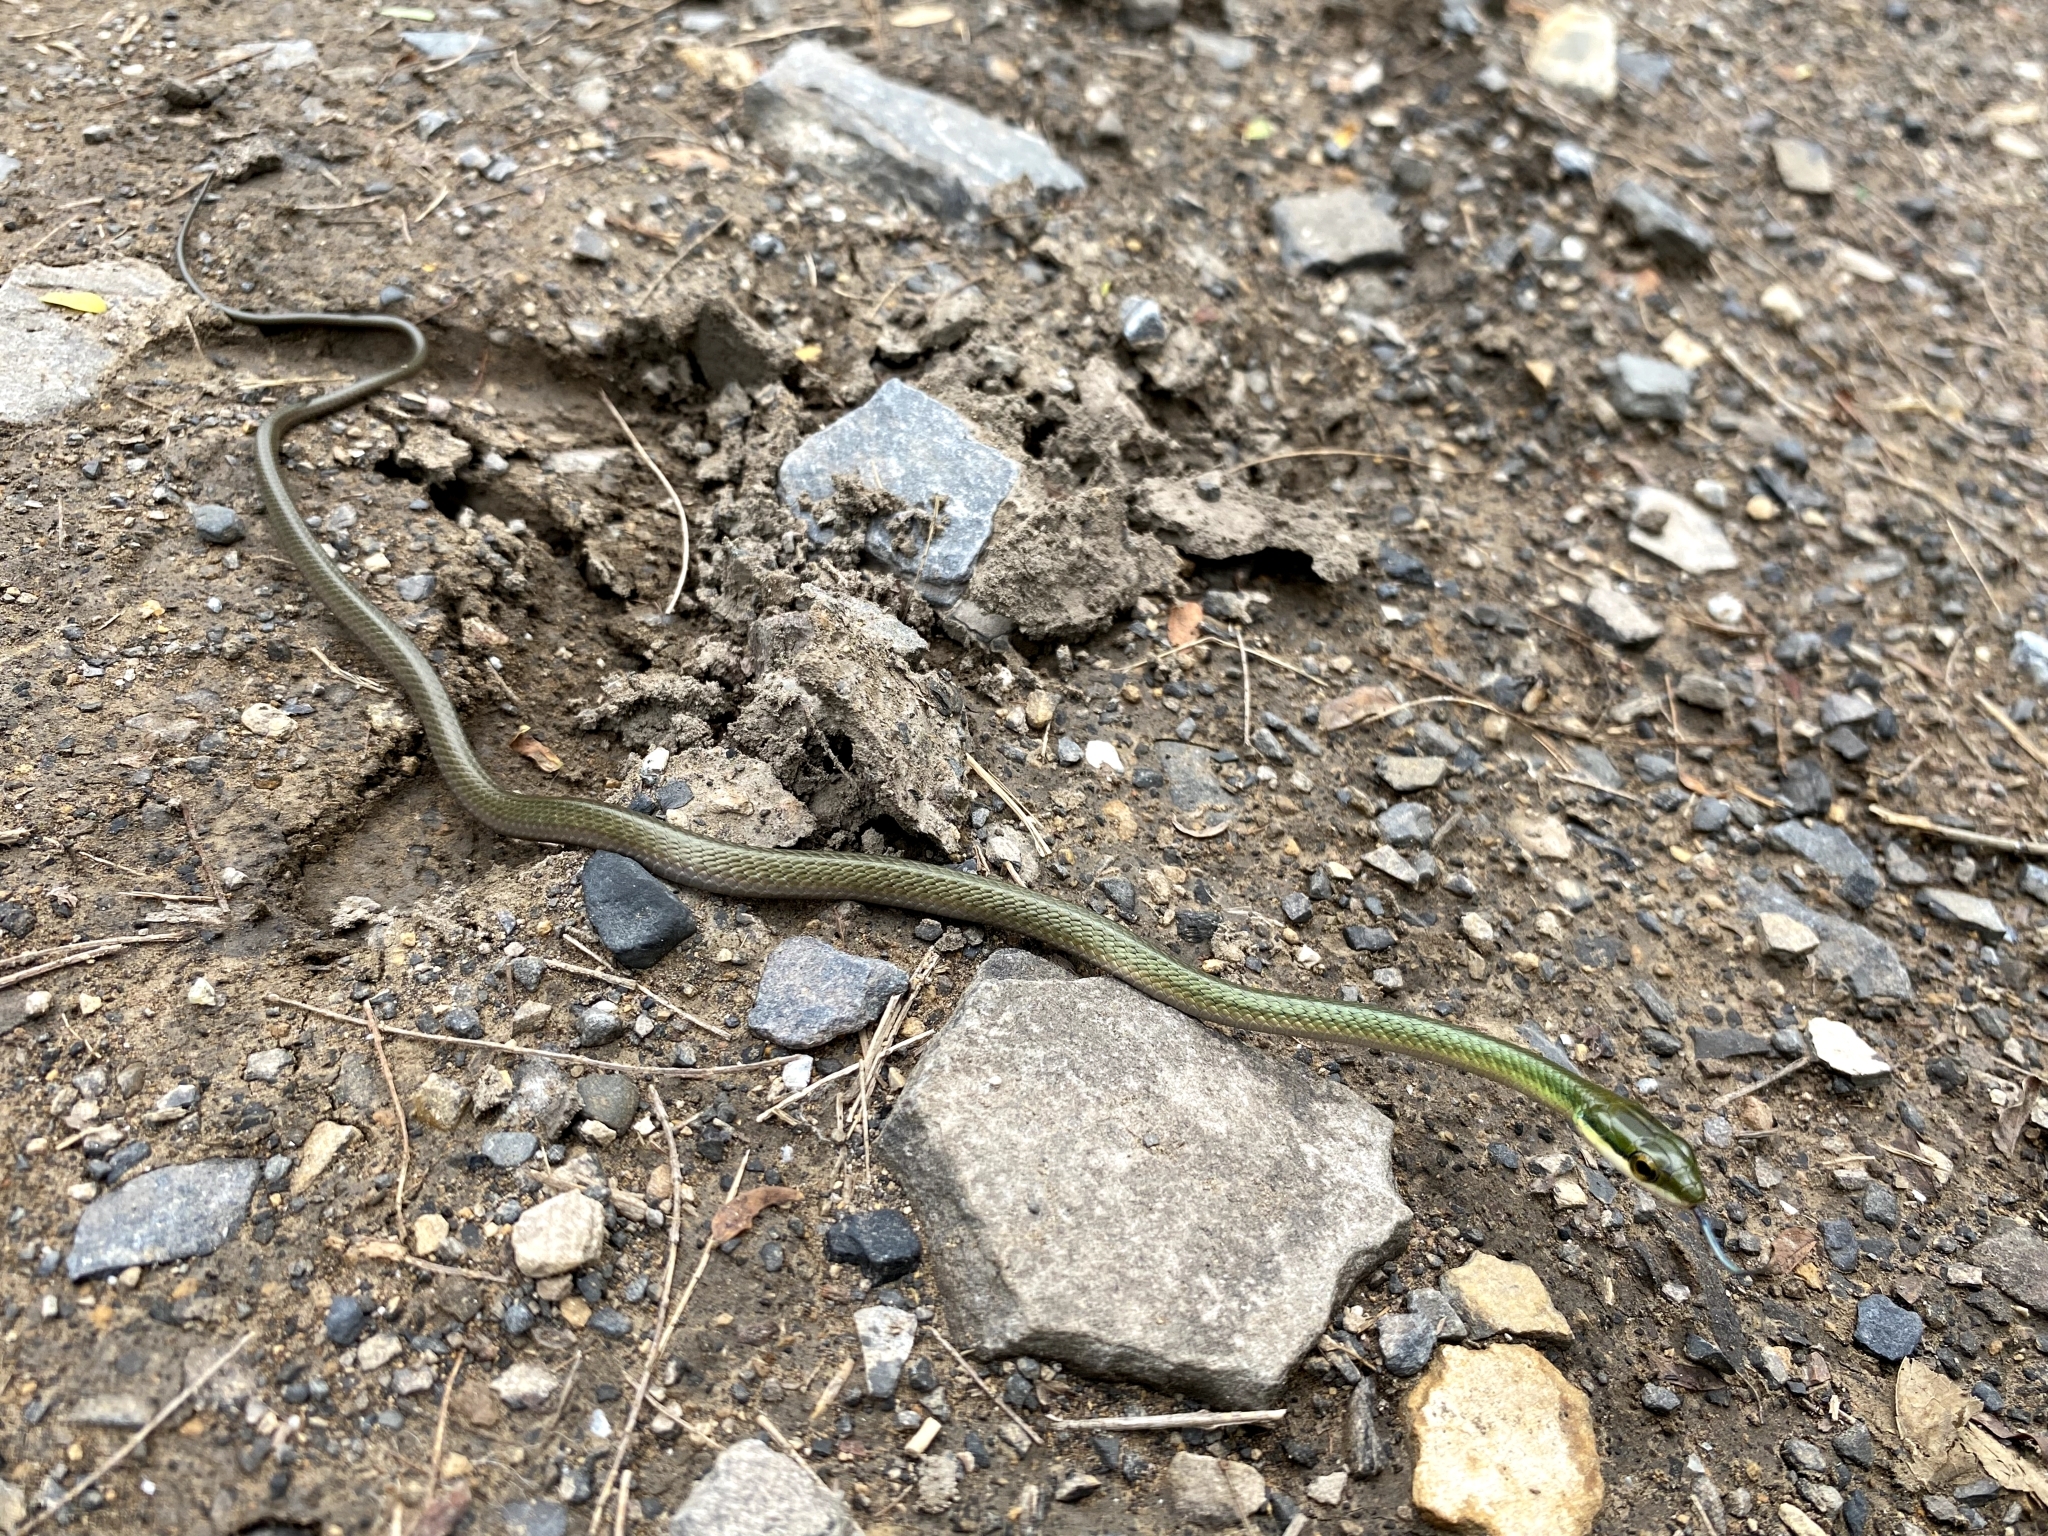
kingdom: Animalia
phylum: Chordata
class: Squamata
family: Colubridae
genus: Leptophis
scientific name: Leptophis ahaetulla
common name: Parrot snake
